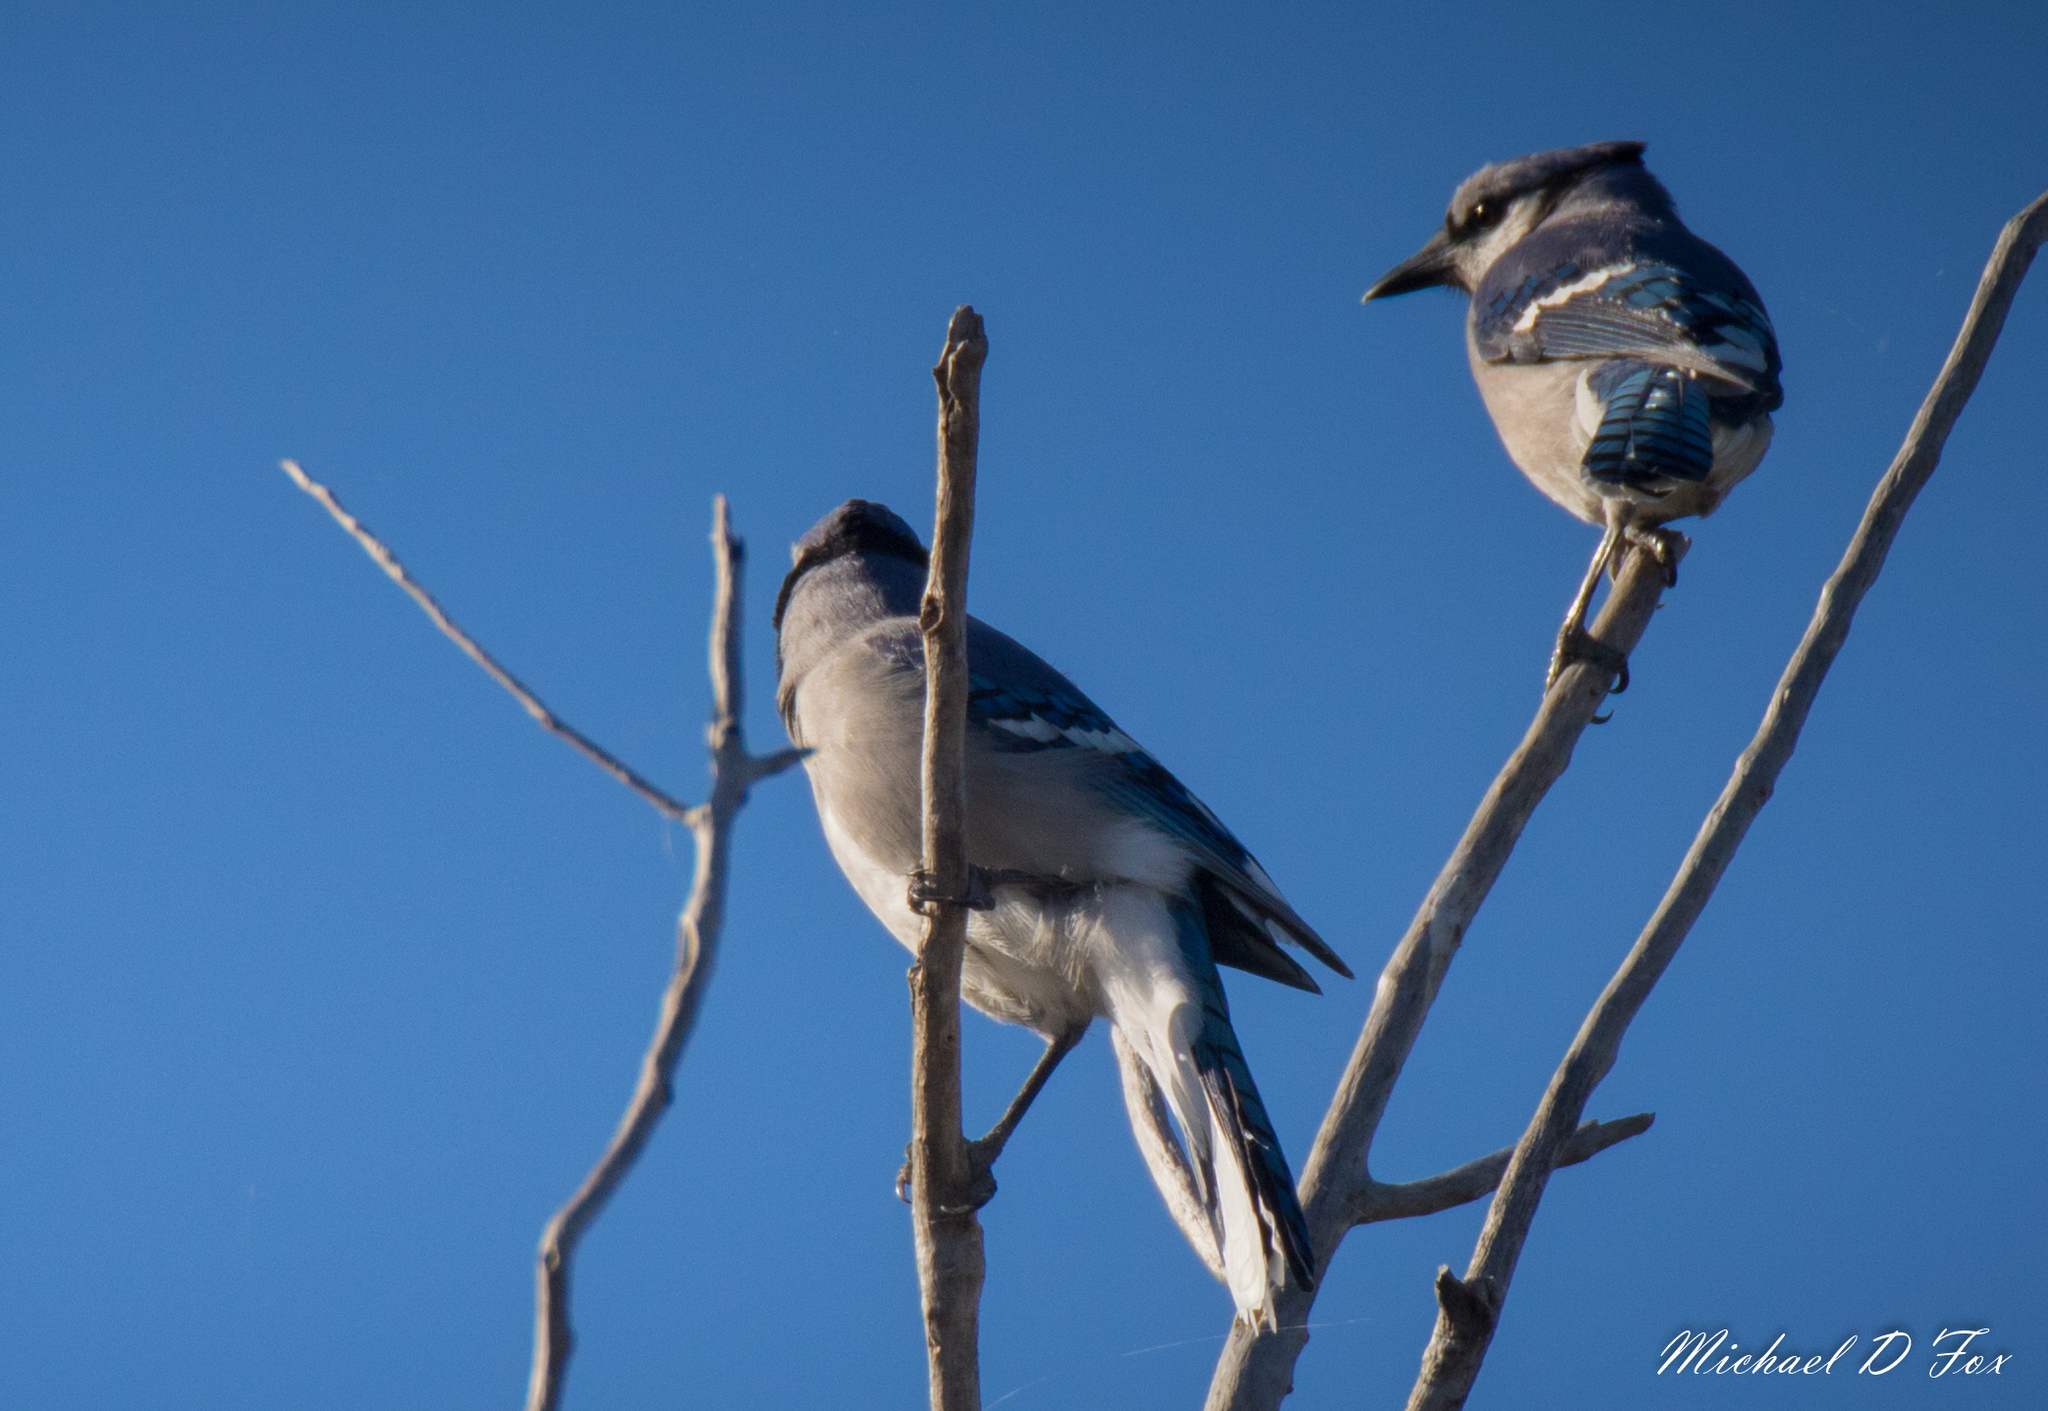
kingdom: Animalia
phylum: Chordata
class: Aves
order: Passeriformes
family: Corvidae
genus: Cyanocitta
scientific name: Cyanocitta cristata
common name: Blue jay
